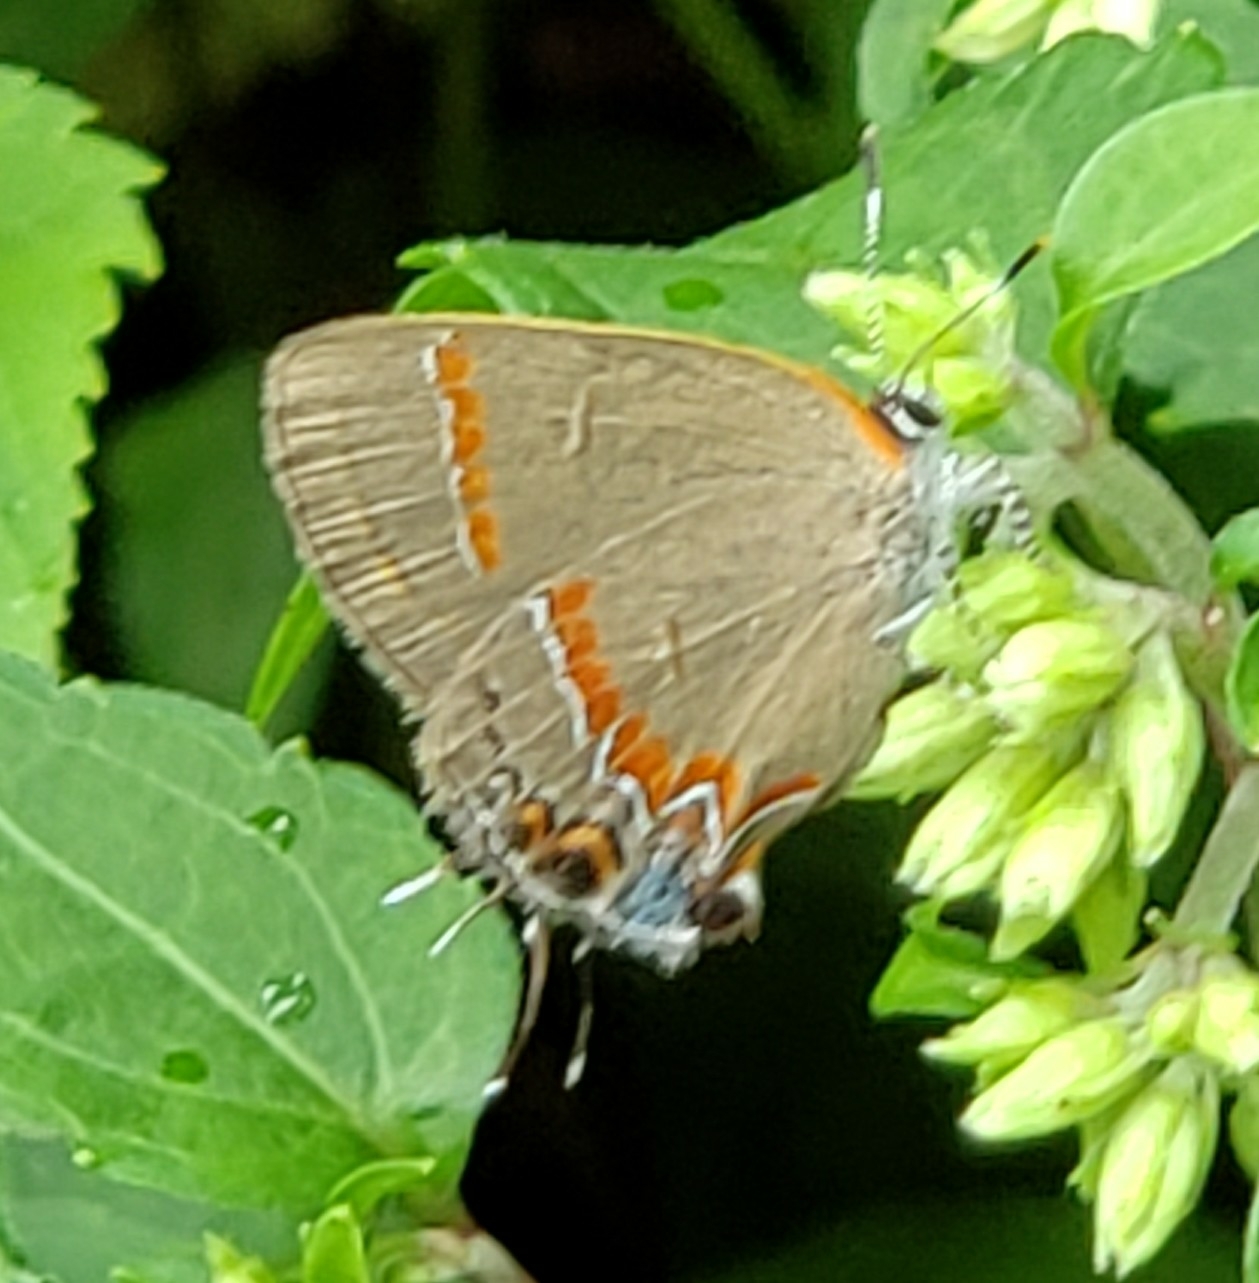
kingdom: Animalia
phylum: Arthropoda
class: Insecta
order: Lepidoptera
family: Lycaenidae
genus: Calycopis
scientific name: Calycopis cecrops
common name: Red-banded hairstreak
